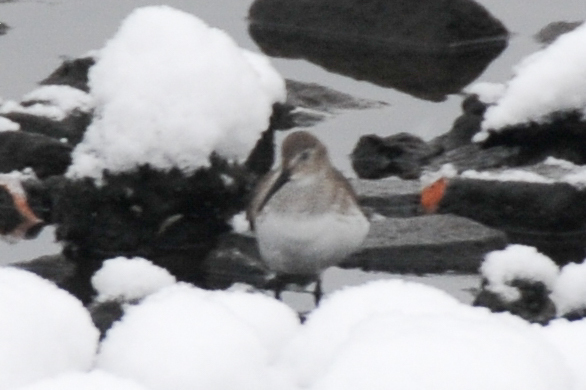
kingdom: Animalia
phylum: Chordata
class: Aves
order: Charadriiformes
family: Scolopacidae
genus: Calidris
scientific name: Calidris alpina
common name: Dunlin
